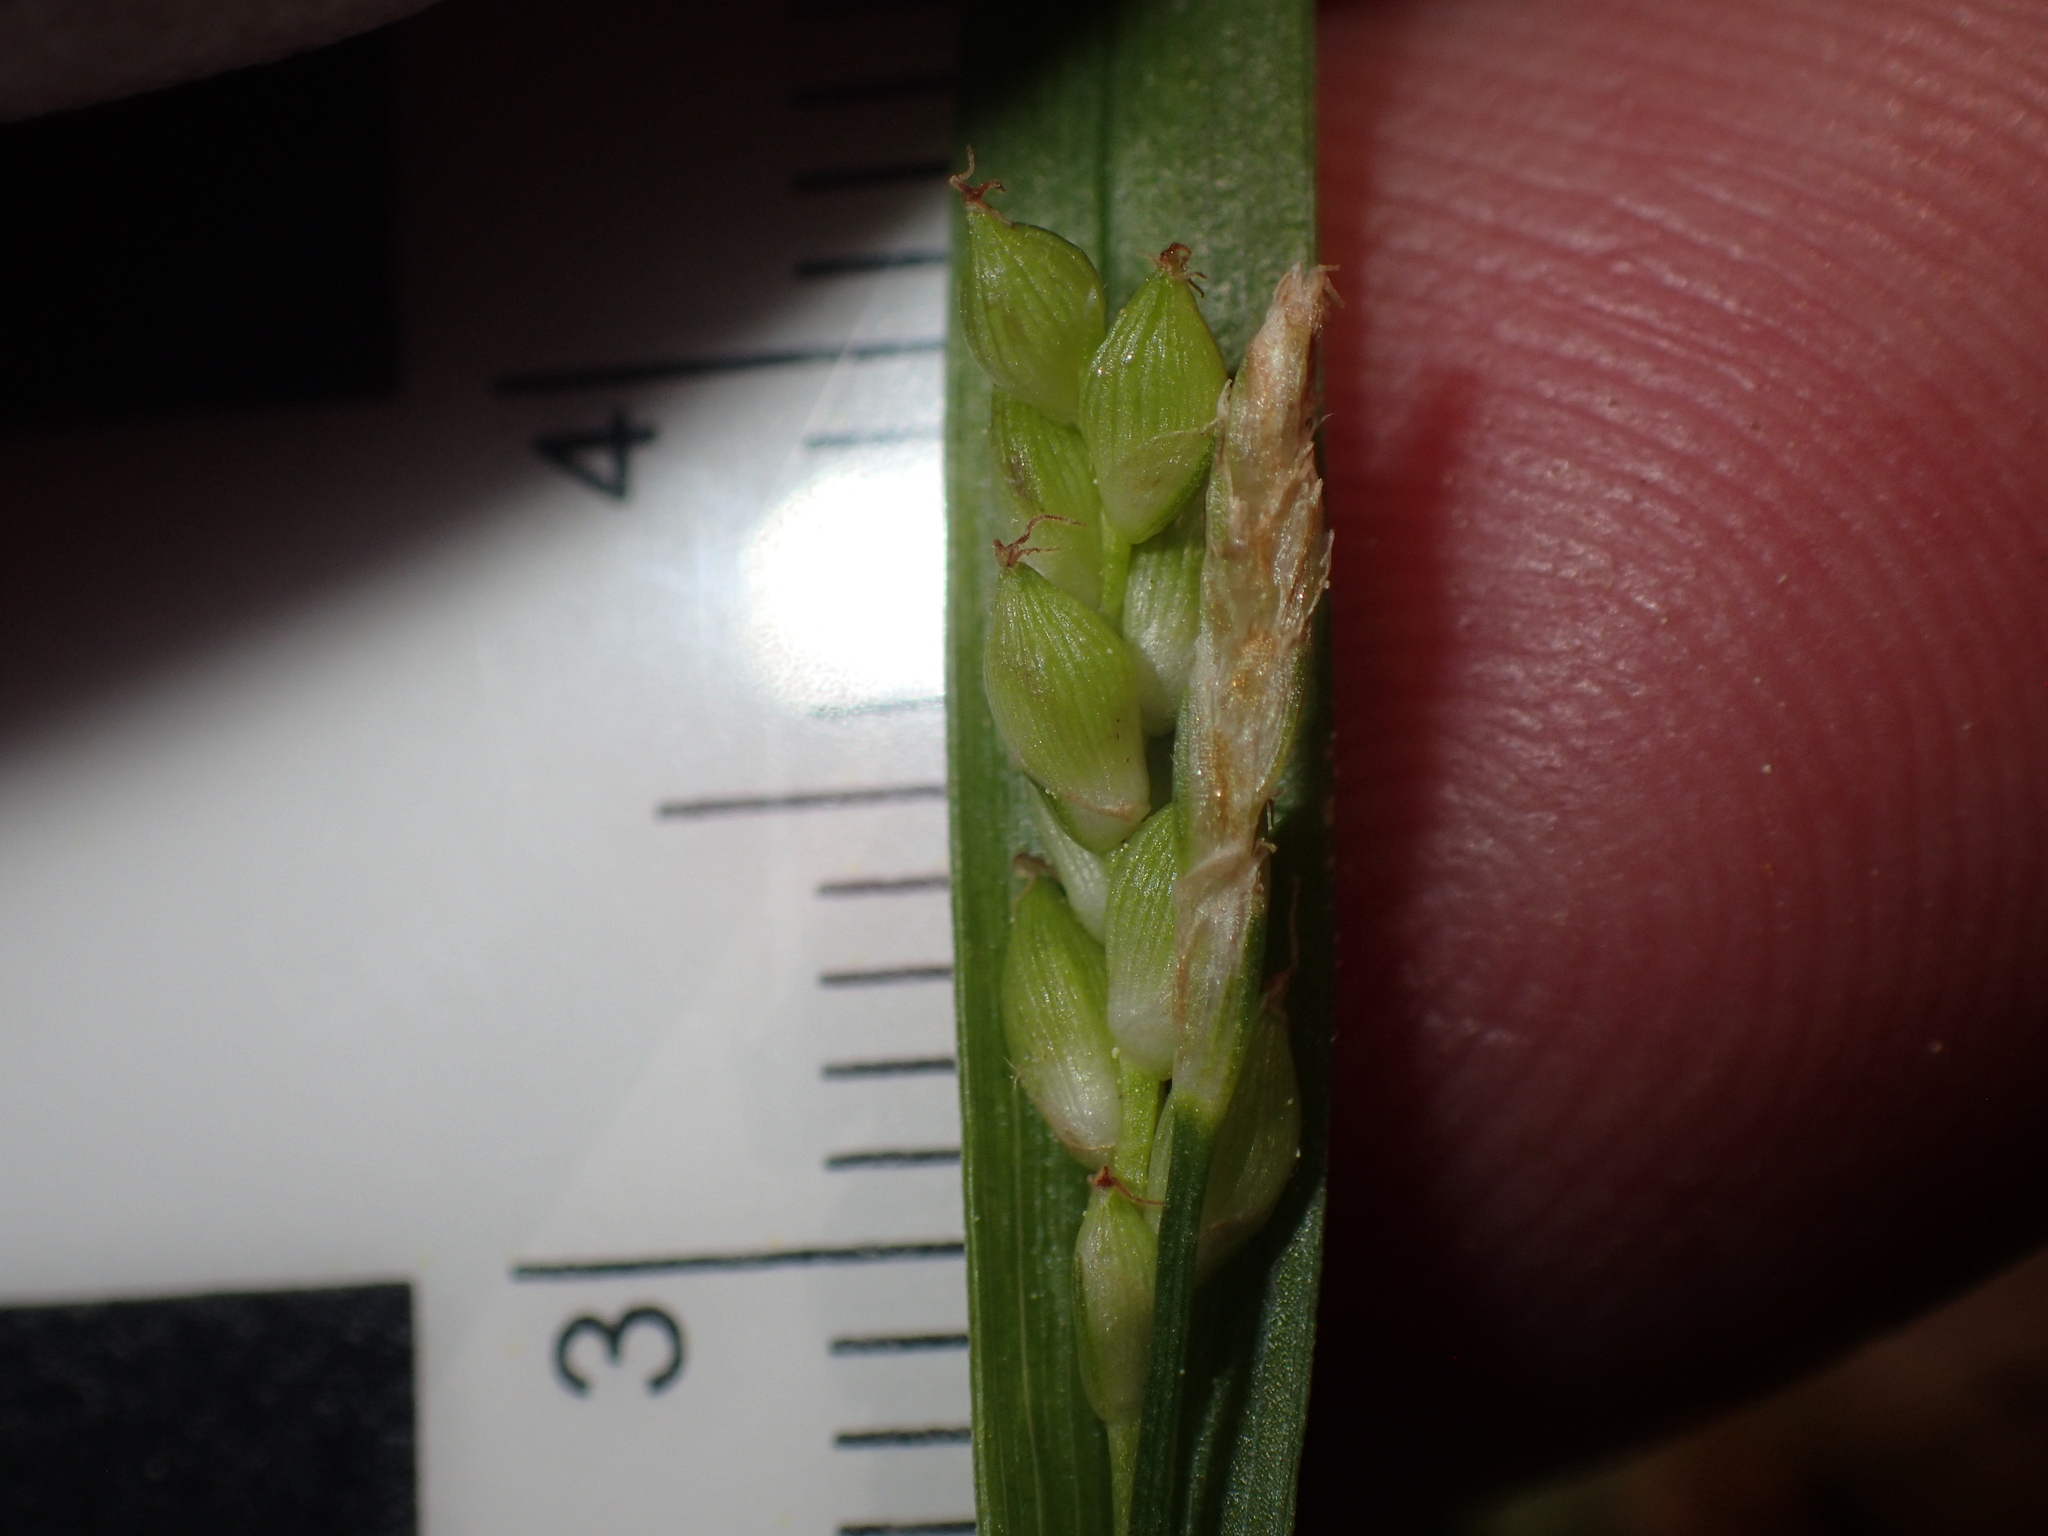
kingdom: Plantae
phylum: Tracheophyta
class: Liliopsida
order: Poales
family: Cyperaceae
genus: Carex
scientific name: Carex abscondita
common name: Thicket sedge
